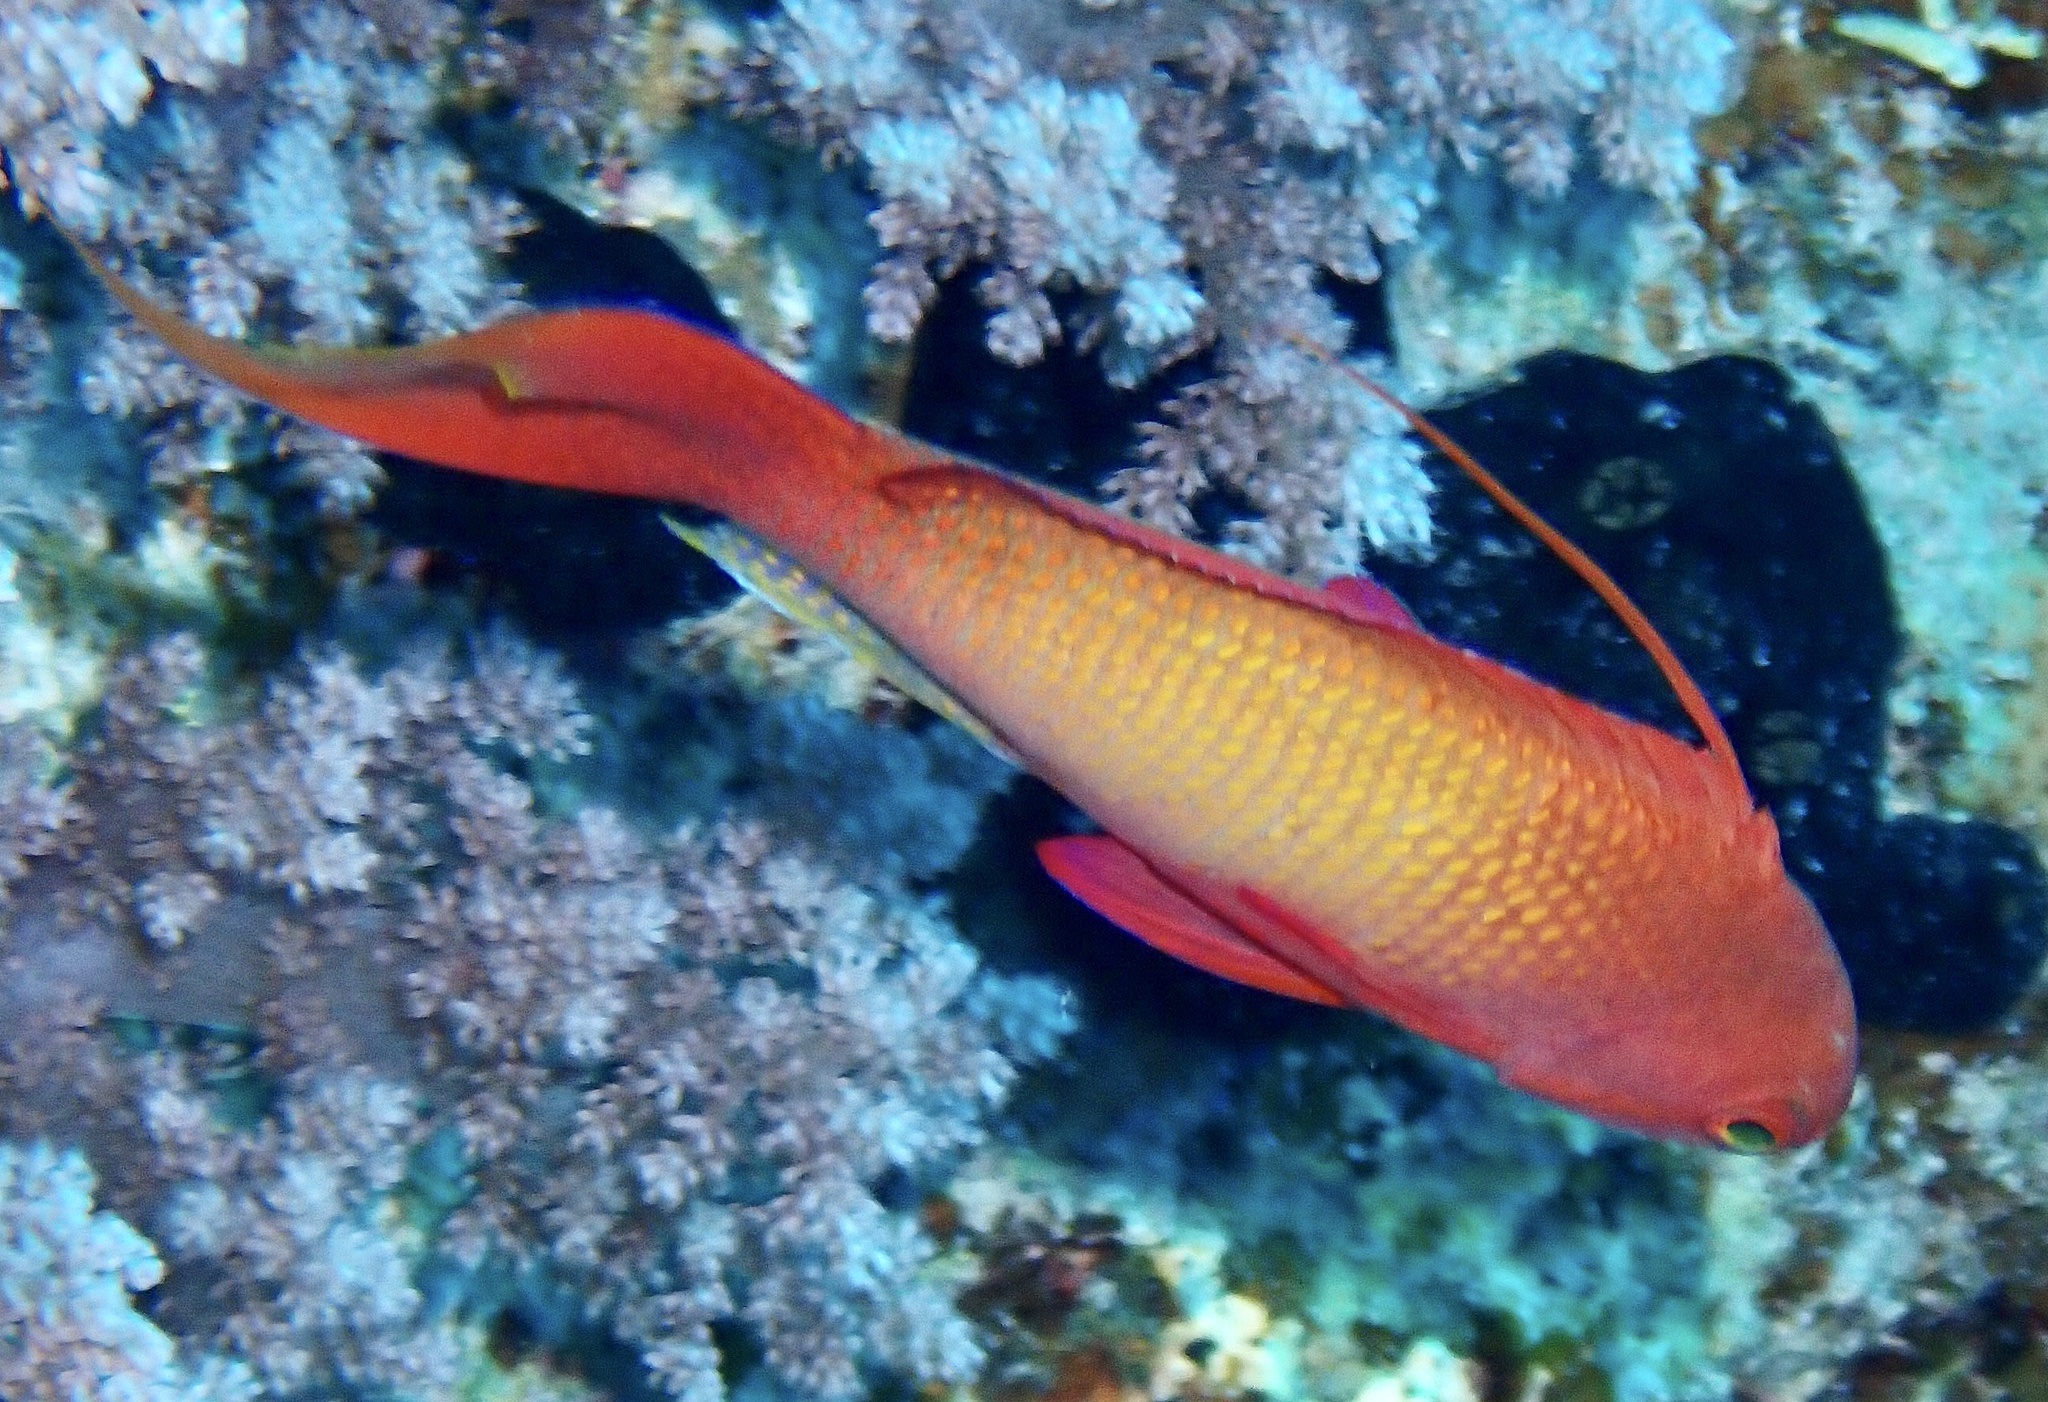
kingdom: Animalia
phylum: Chordata
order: Perciformes
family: Serranidae
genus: Pseudanthias
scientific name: Pseudanthias squamipinnis
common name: Scalefin anthias
